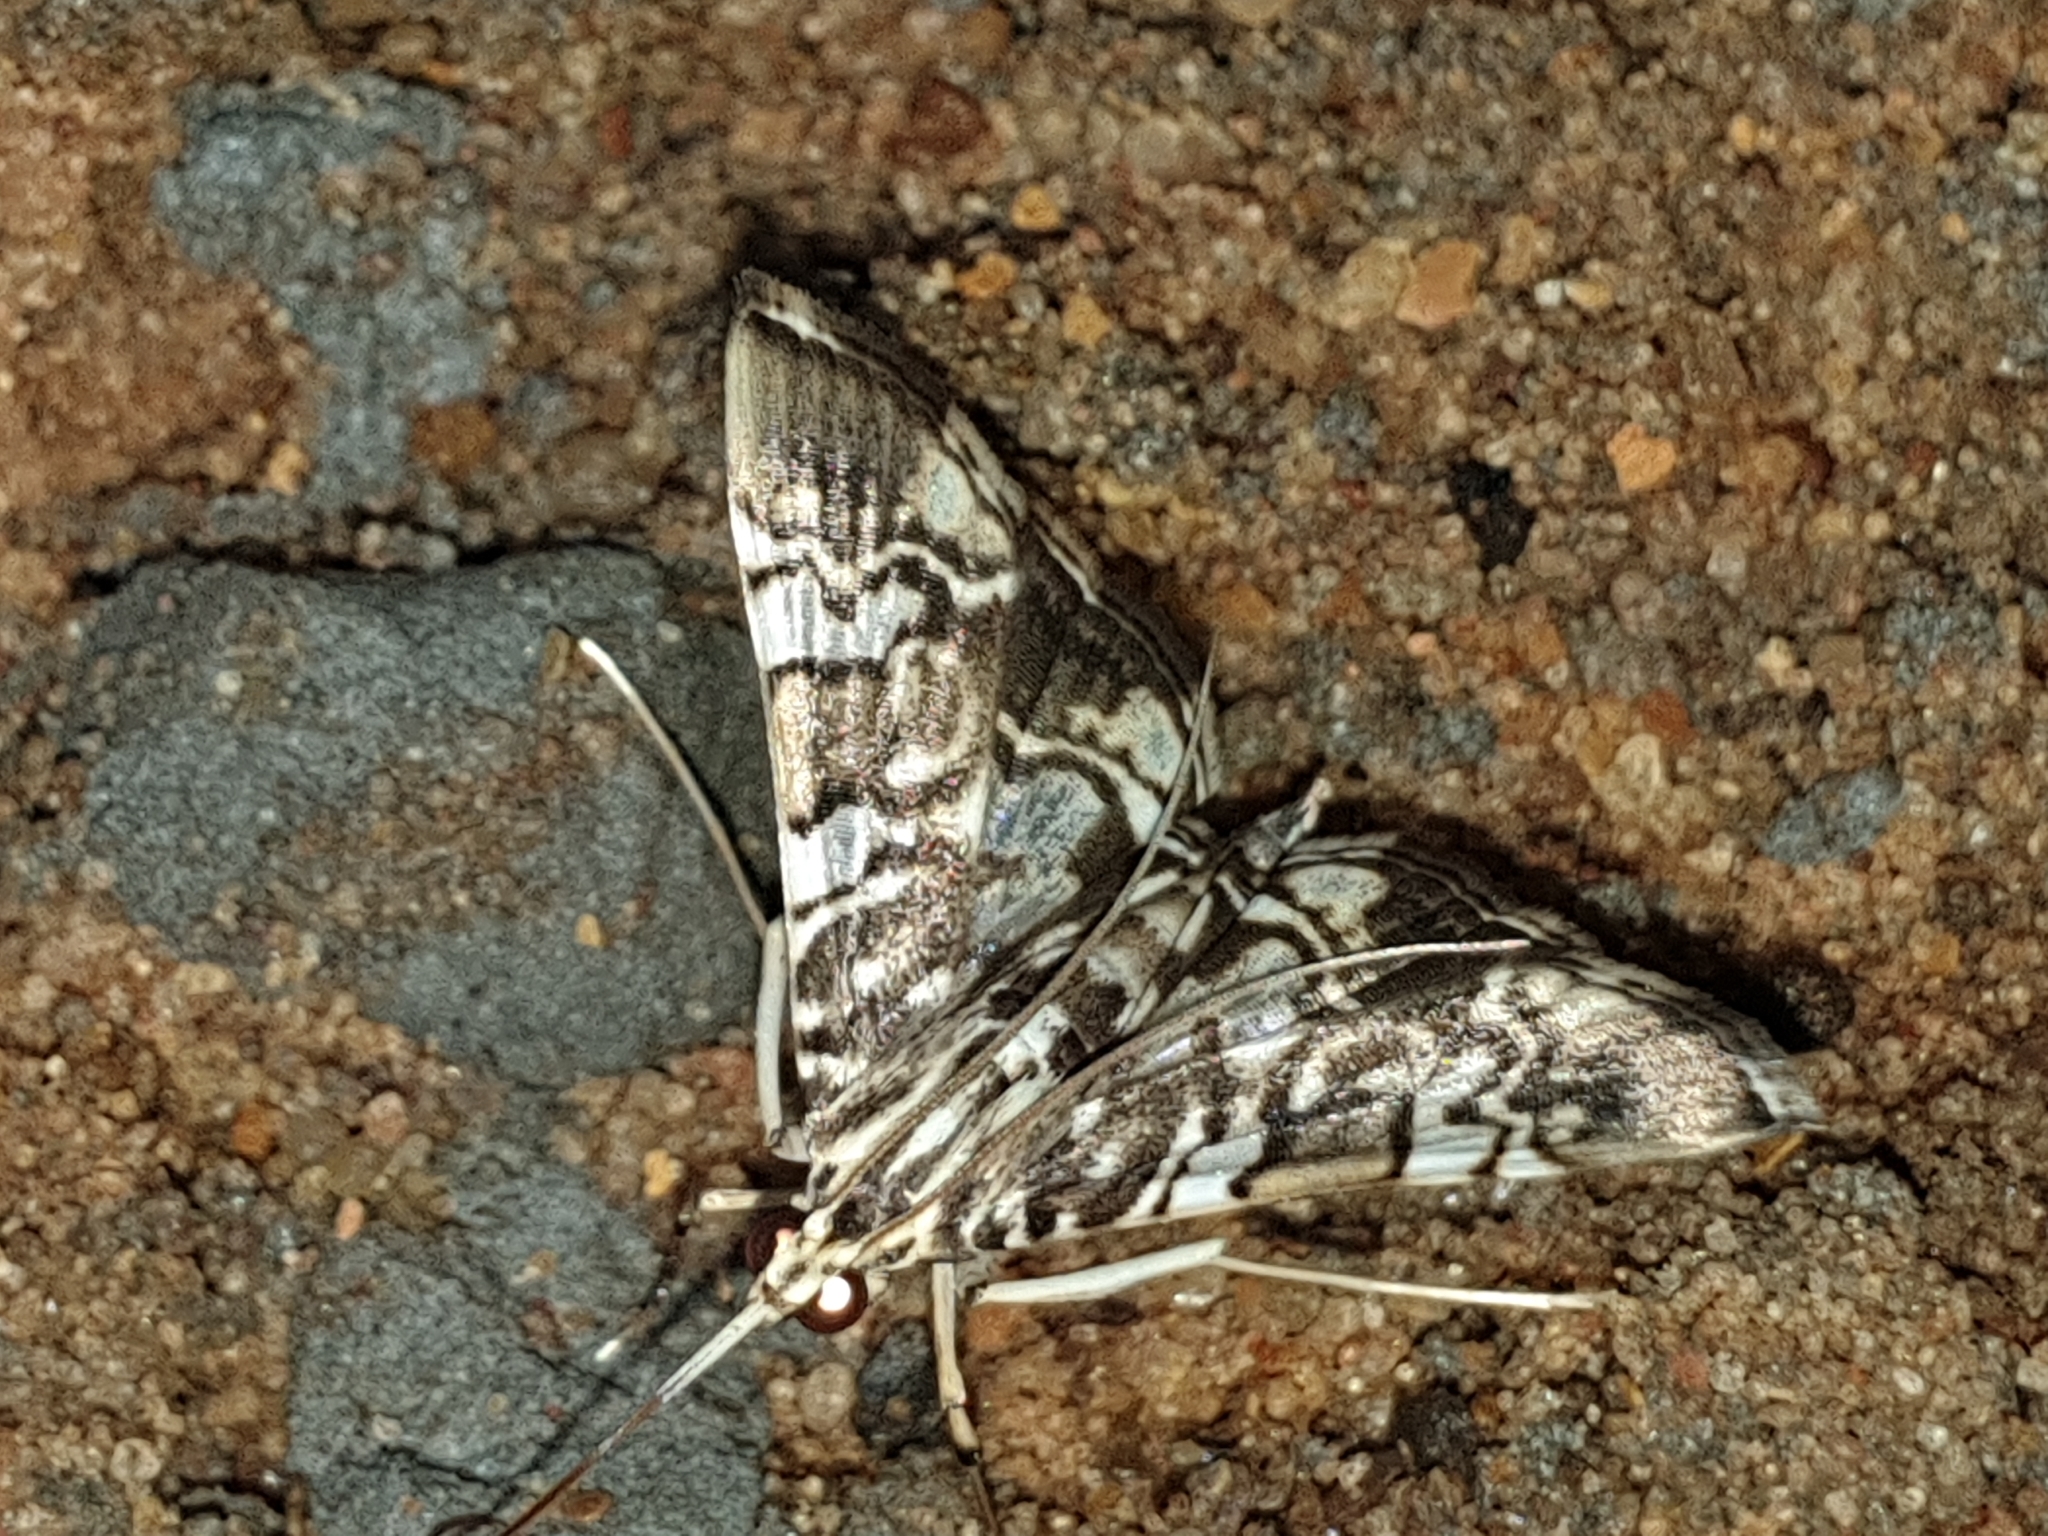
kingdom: Animalia
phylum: Arthropoda
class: Insecta
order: Lepidoptera
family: Crambidae
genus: Chabula
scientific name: Chabula acamasalis
